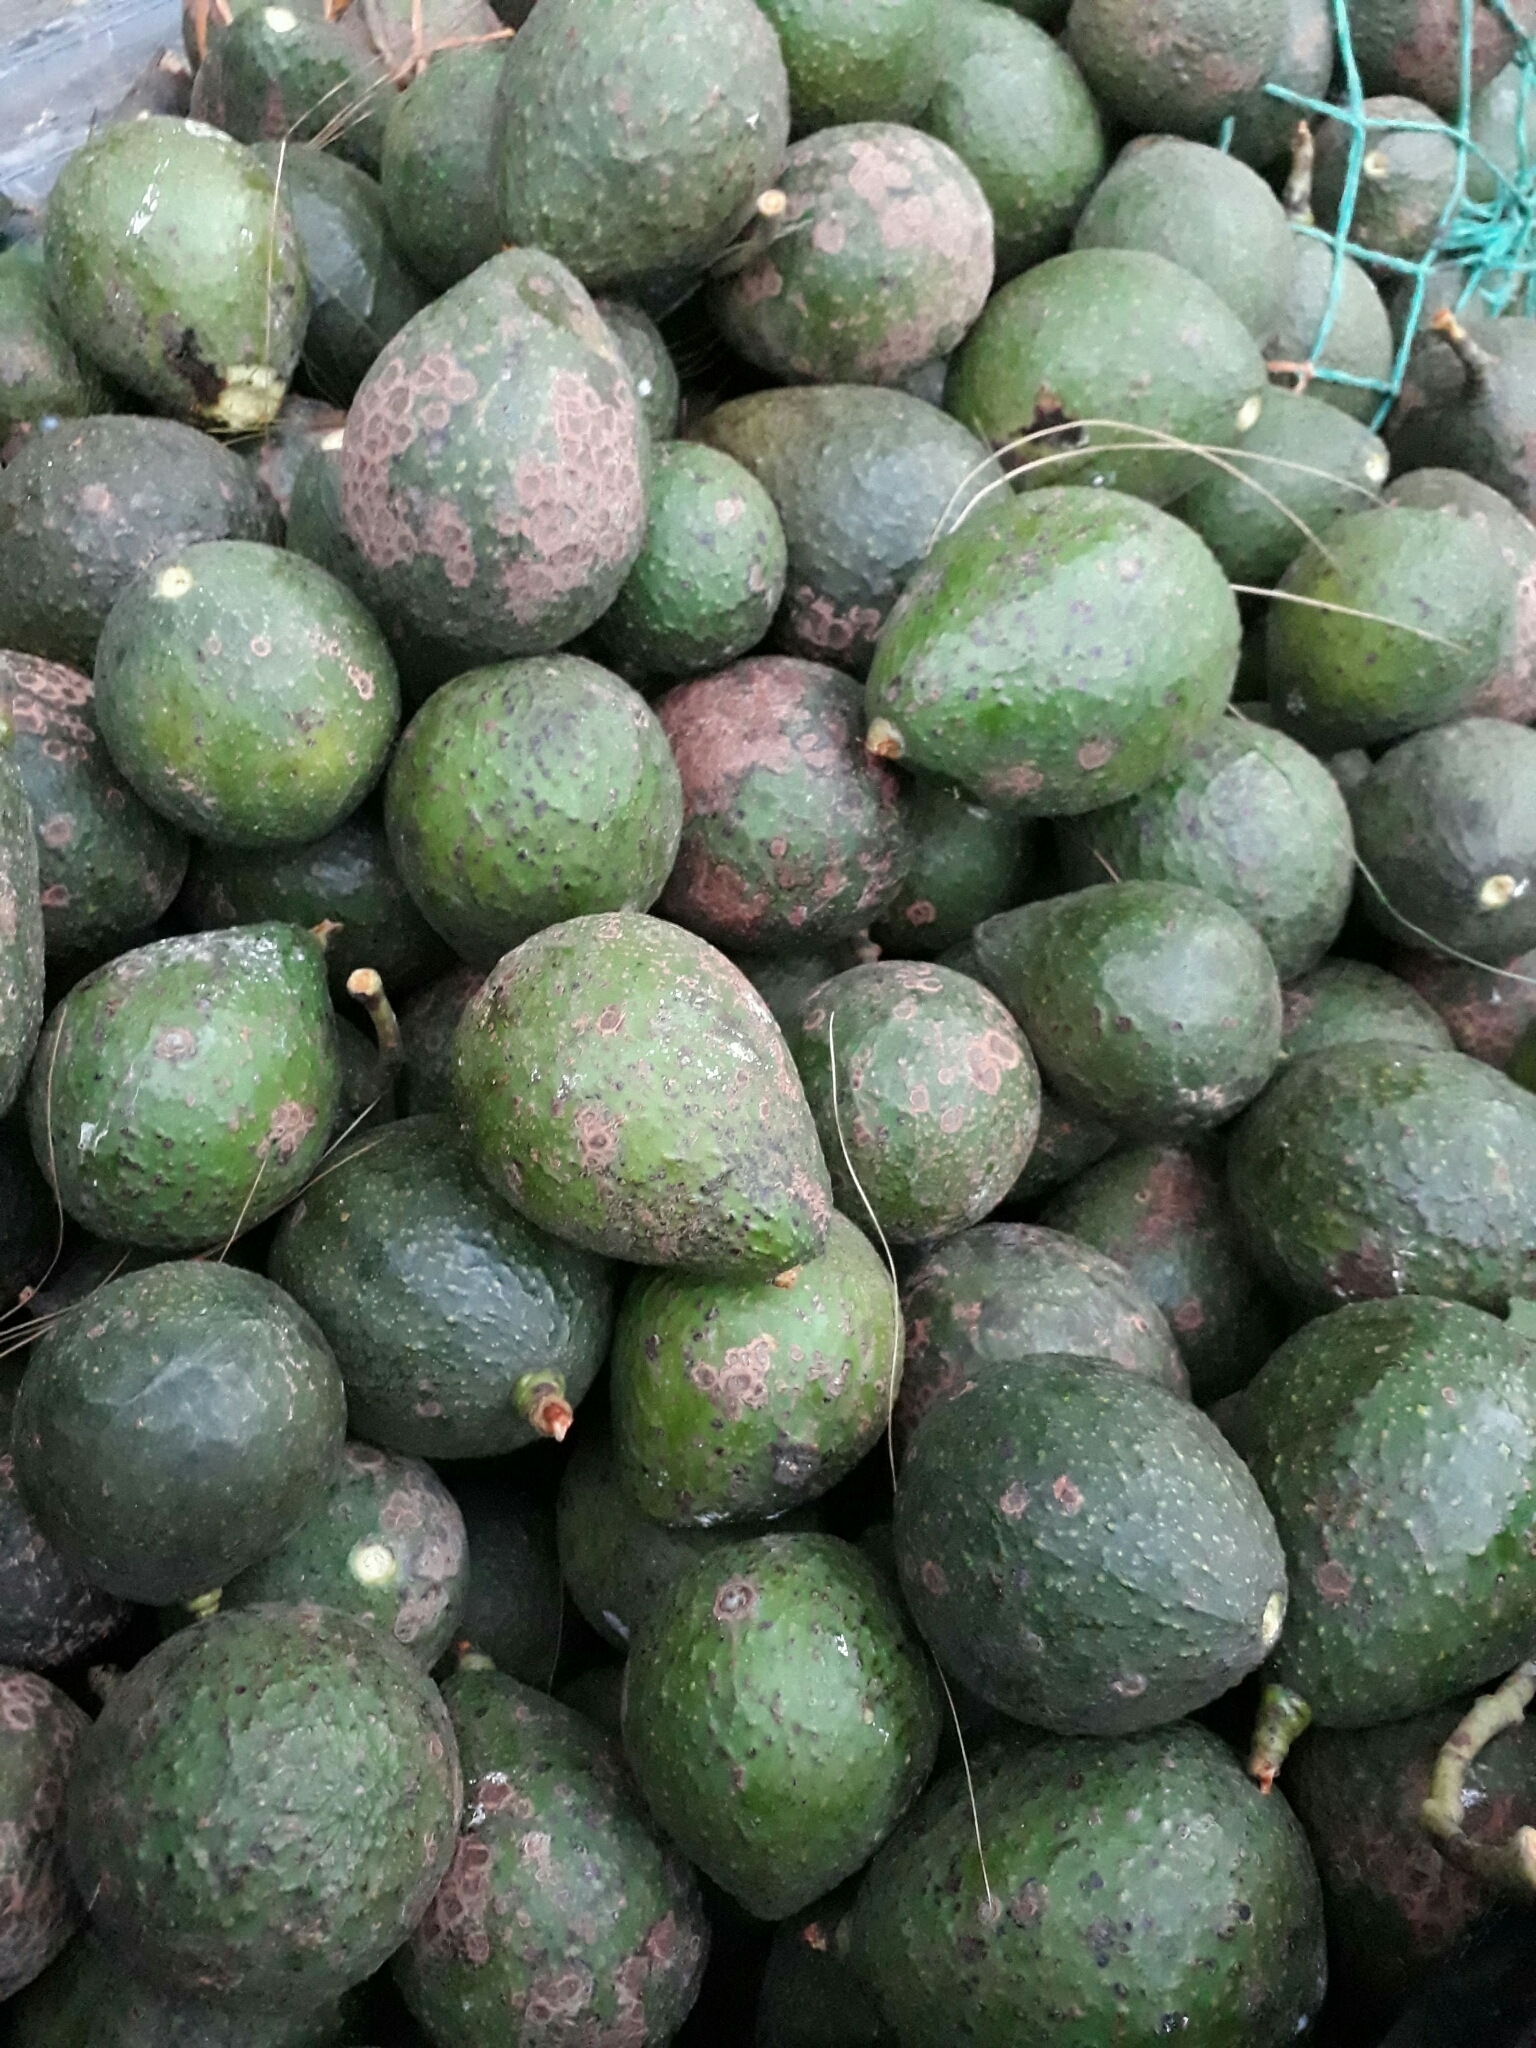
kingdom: Plantae
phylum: Tracheophyta
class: Magnoliopsida
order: Laurales
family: Lauraceae
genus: Persea
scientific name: Persea americana
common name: Avocado
